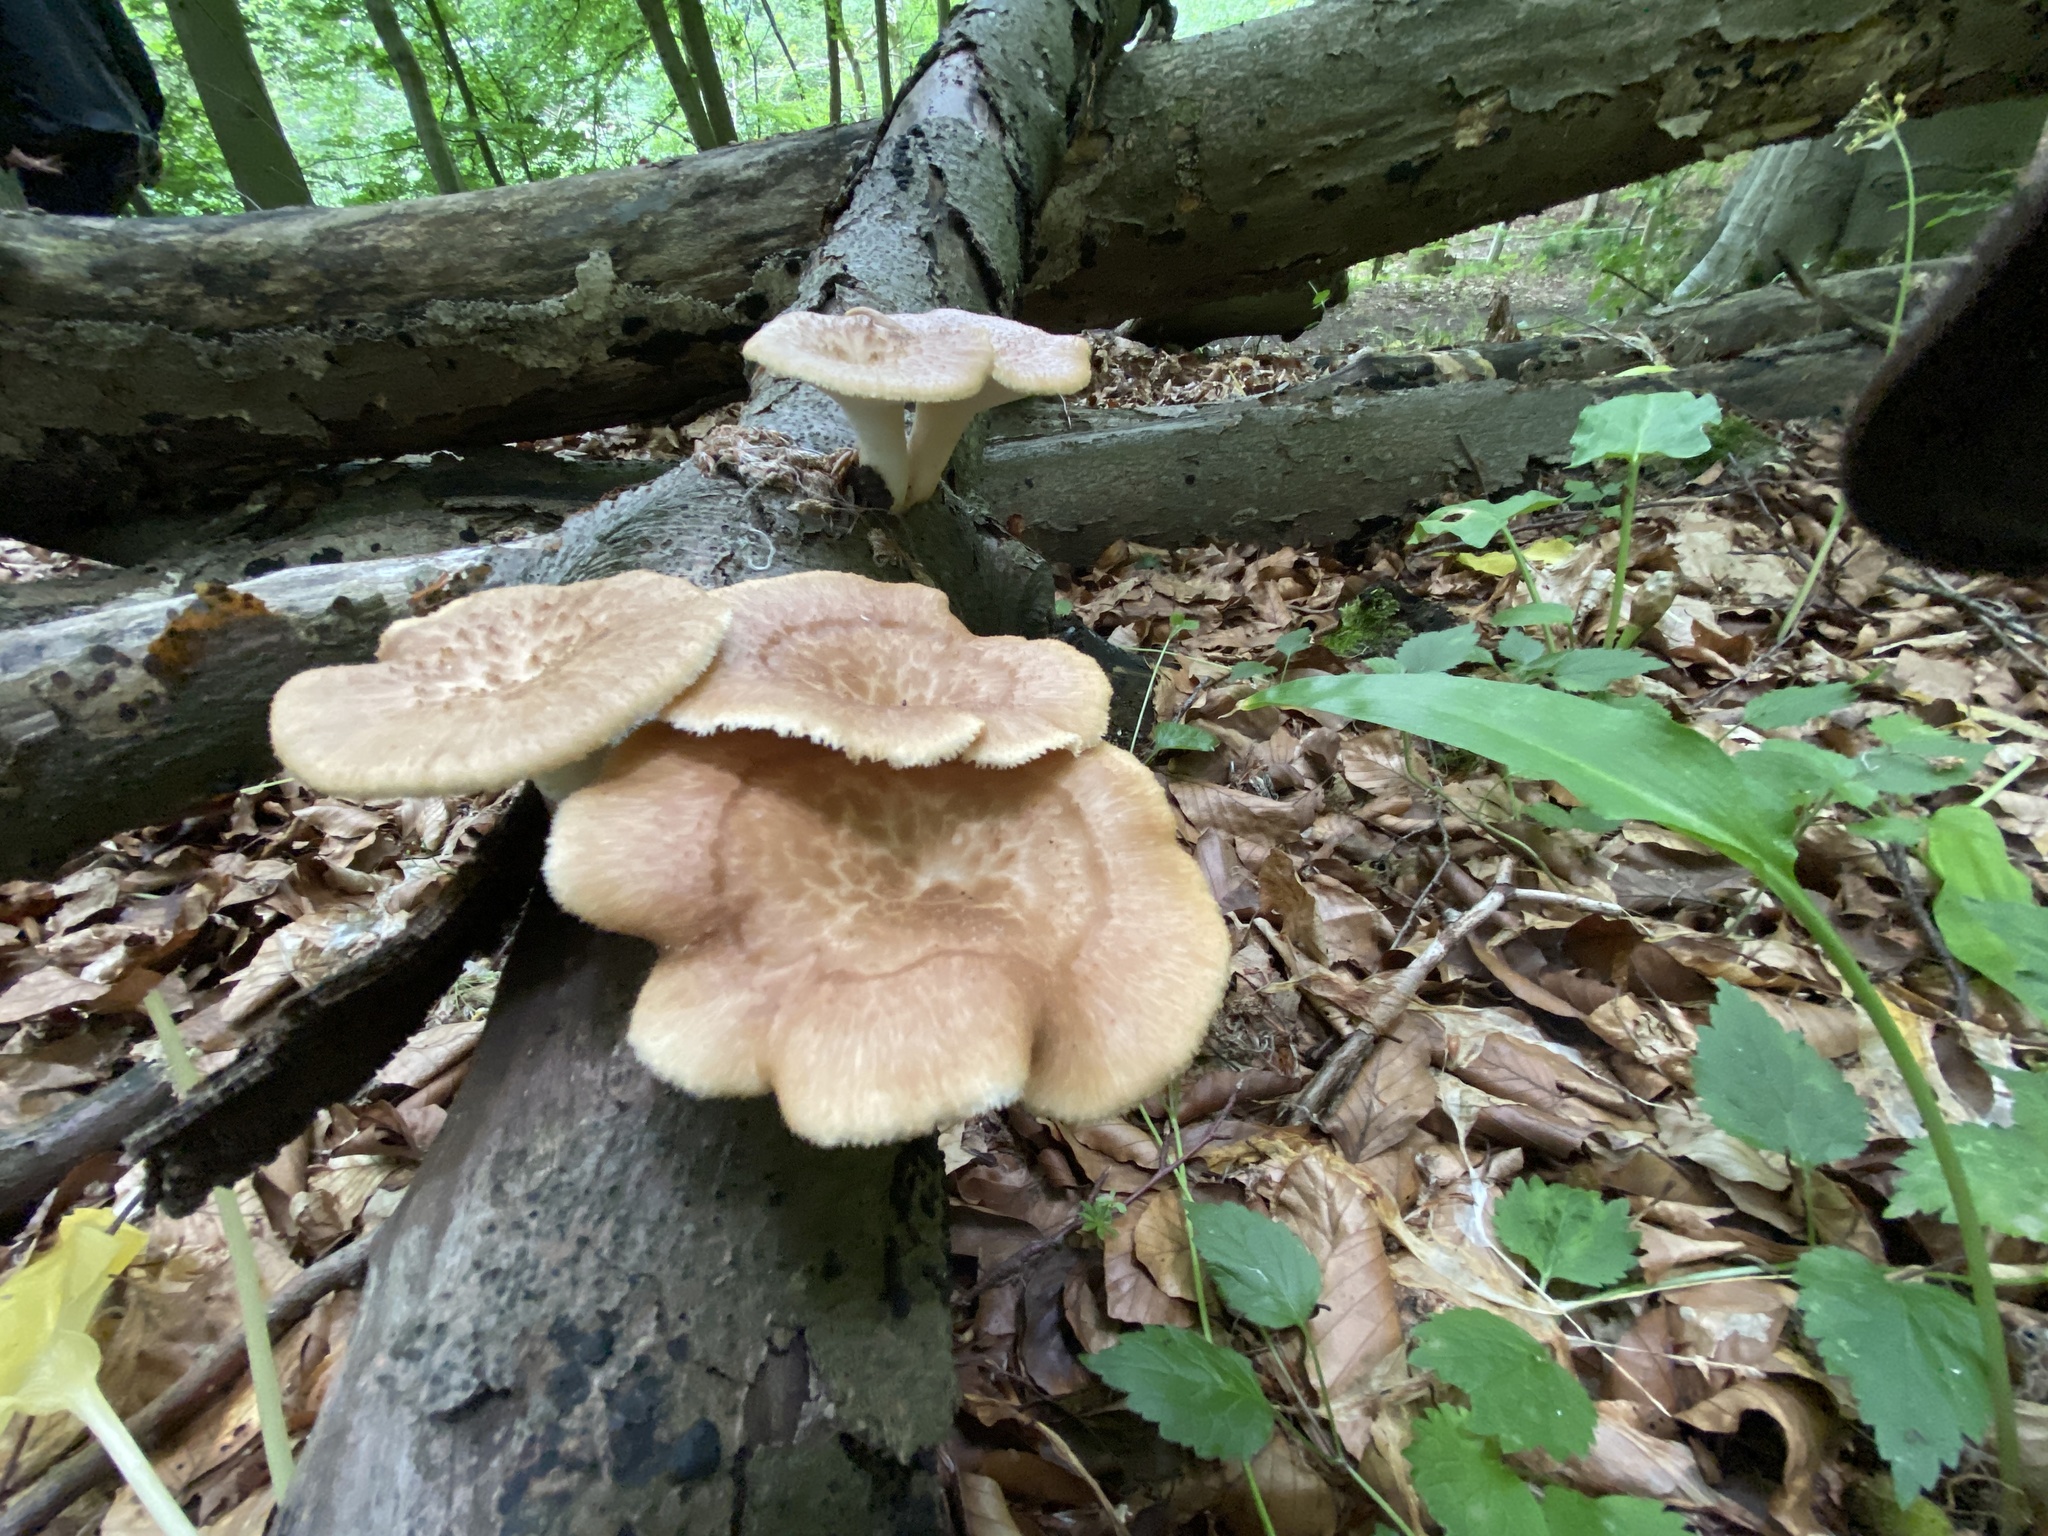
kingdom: Fungi
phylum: Basidiomycota
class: Agaricomycetes
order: Polyporales
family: Polyporaceae
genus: Polyporus
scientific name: Polyporus tuberaster
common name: Tuberous polypore
